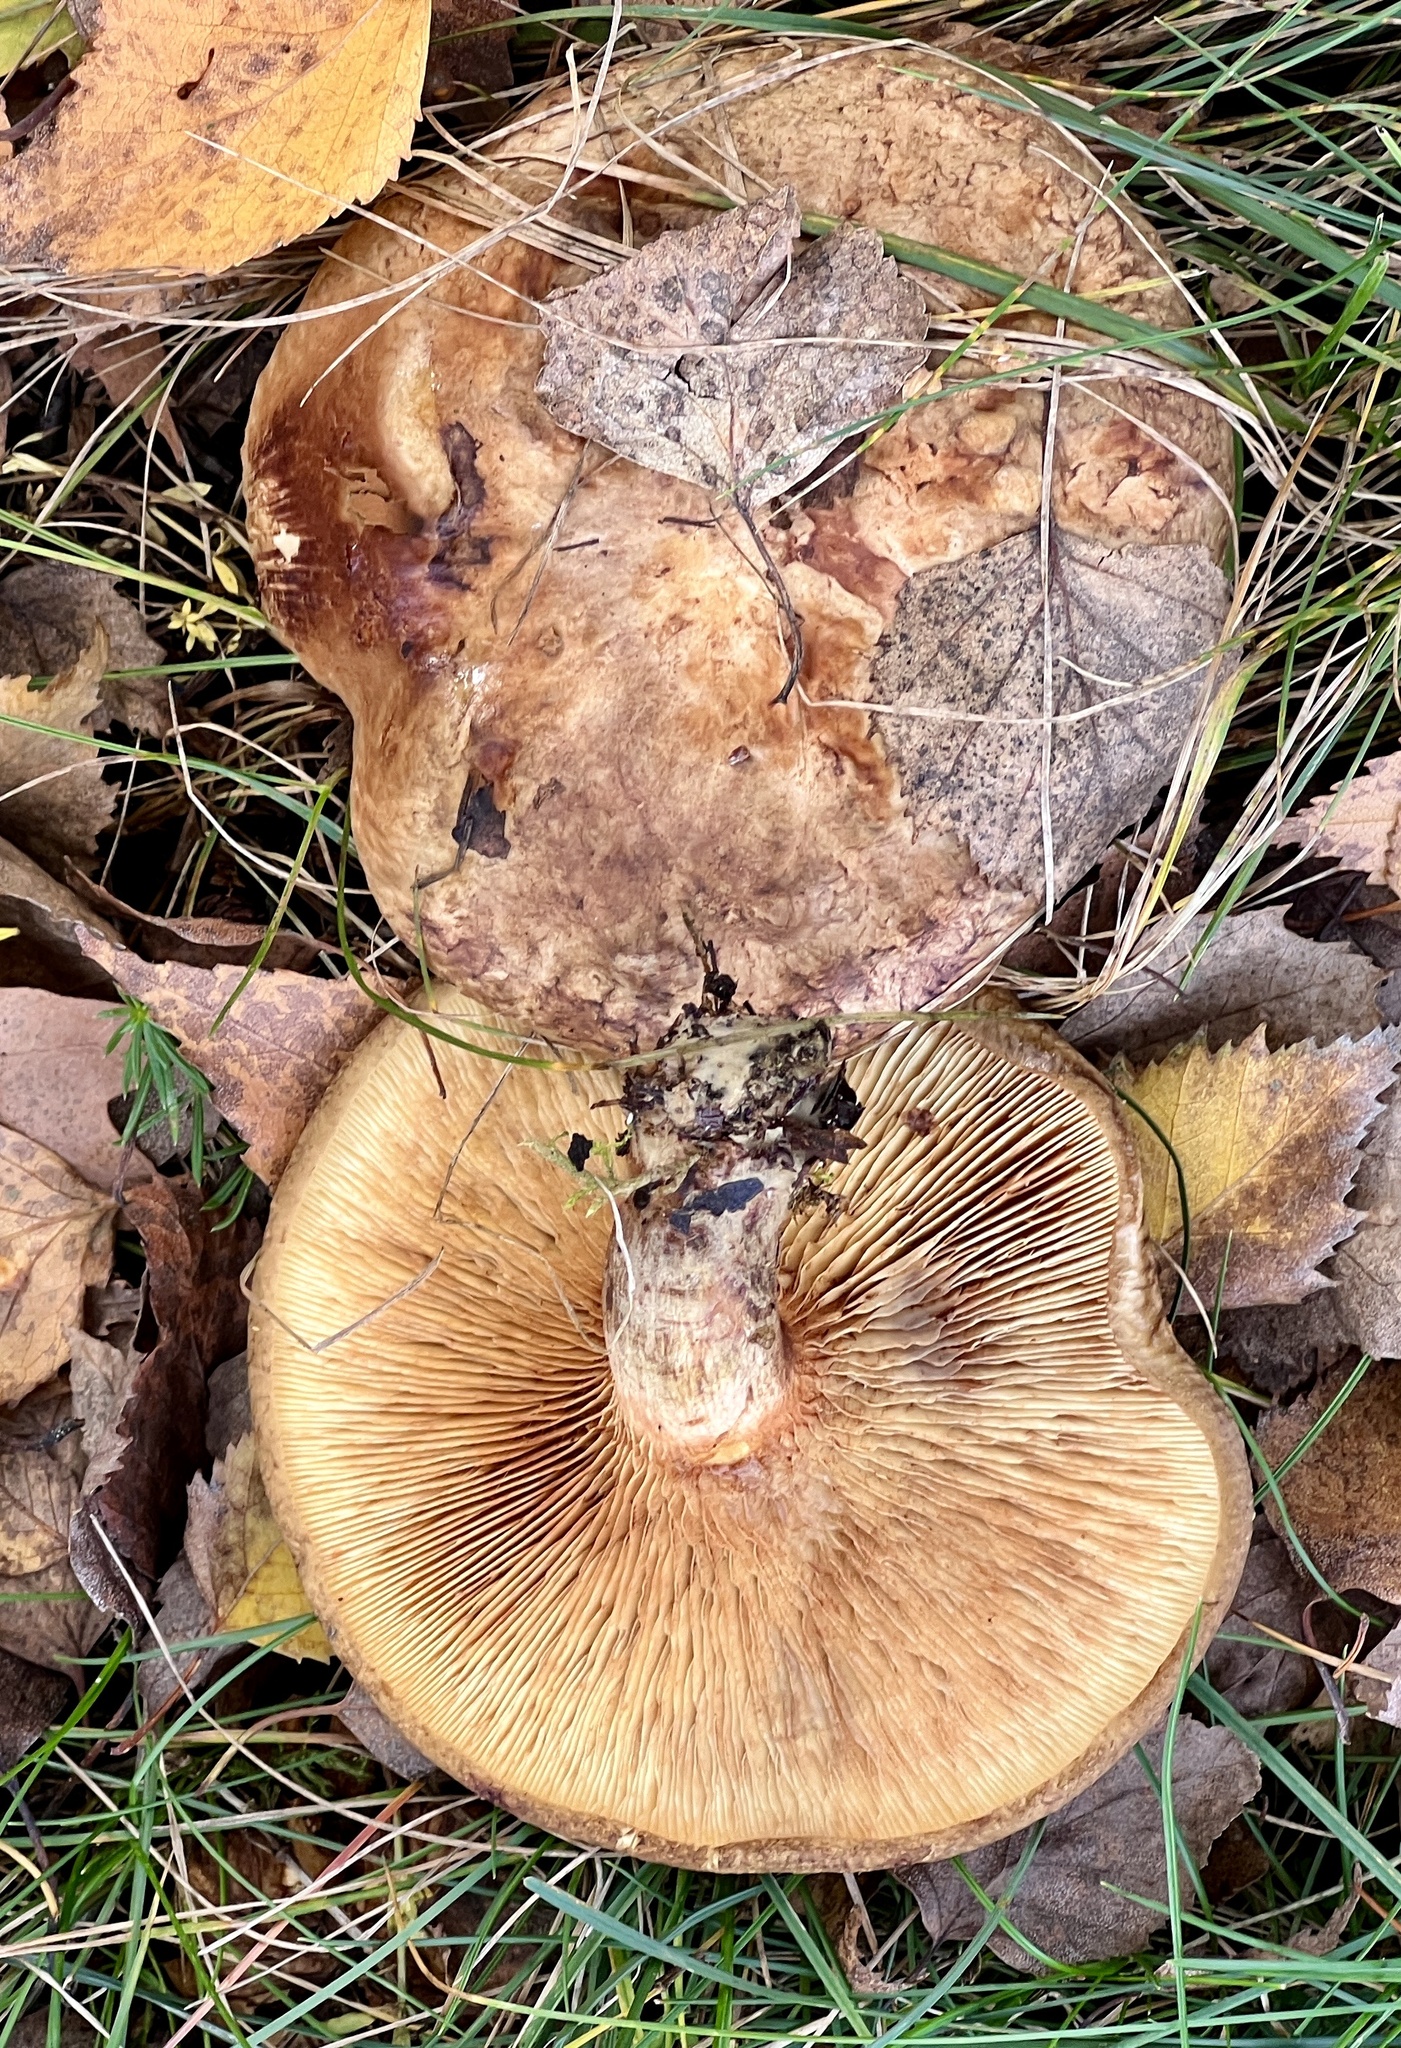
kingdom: Fungi
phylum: Basidiomycota
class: Agaricomycetes
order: Boletales
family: Paxillaceae
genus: Paxillus
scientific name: Paxillus involutus
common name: Brown roll rim
